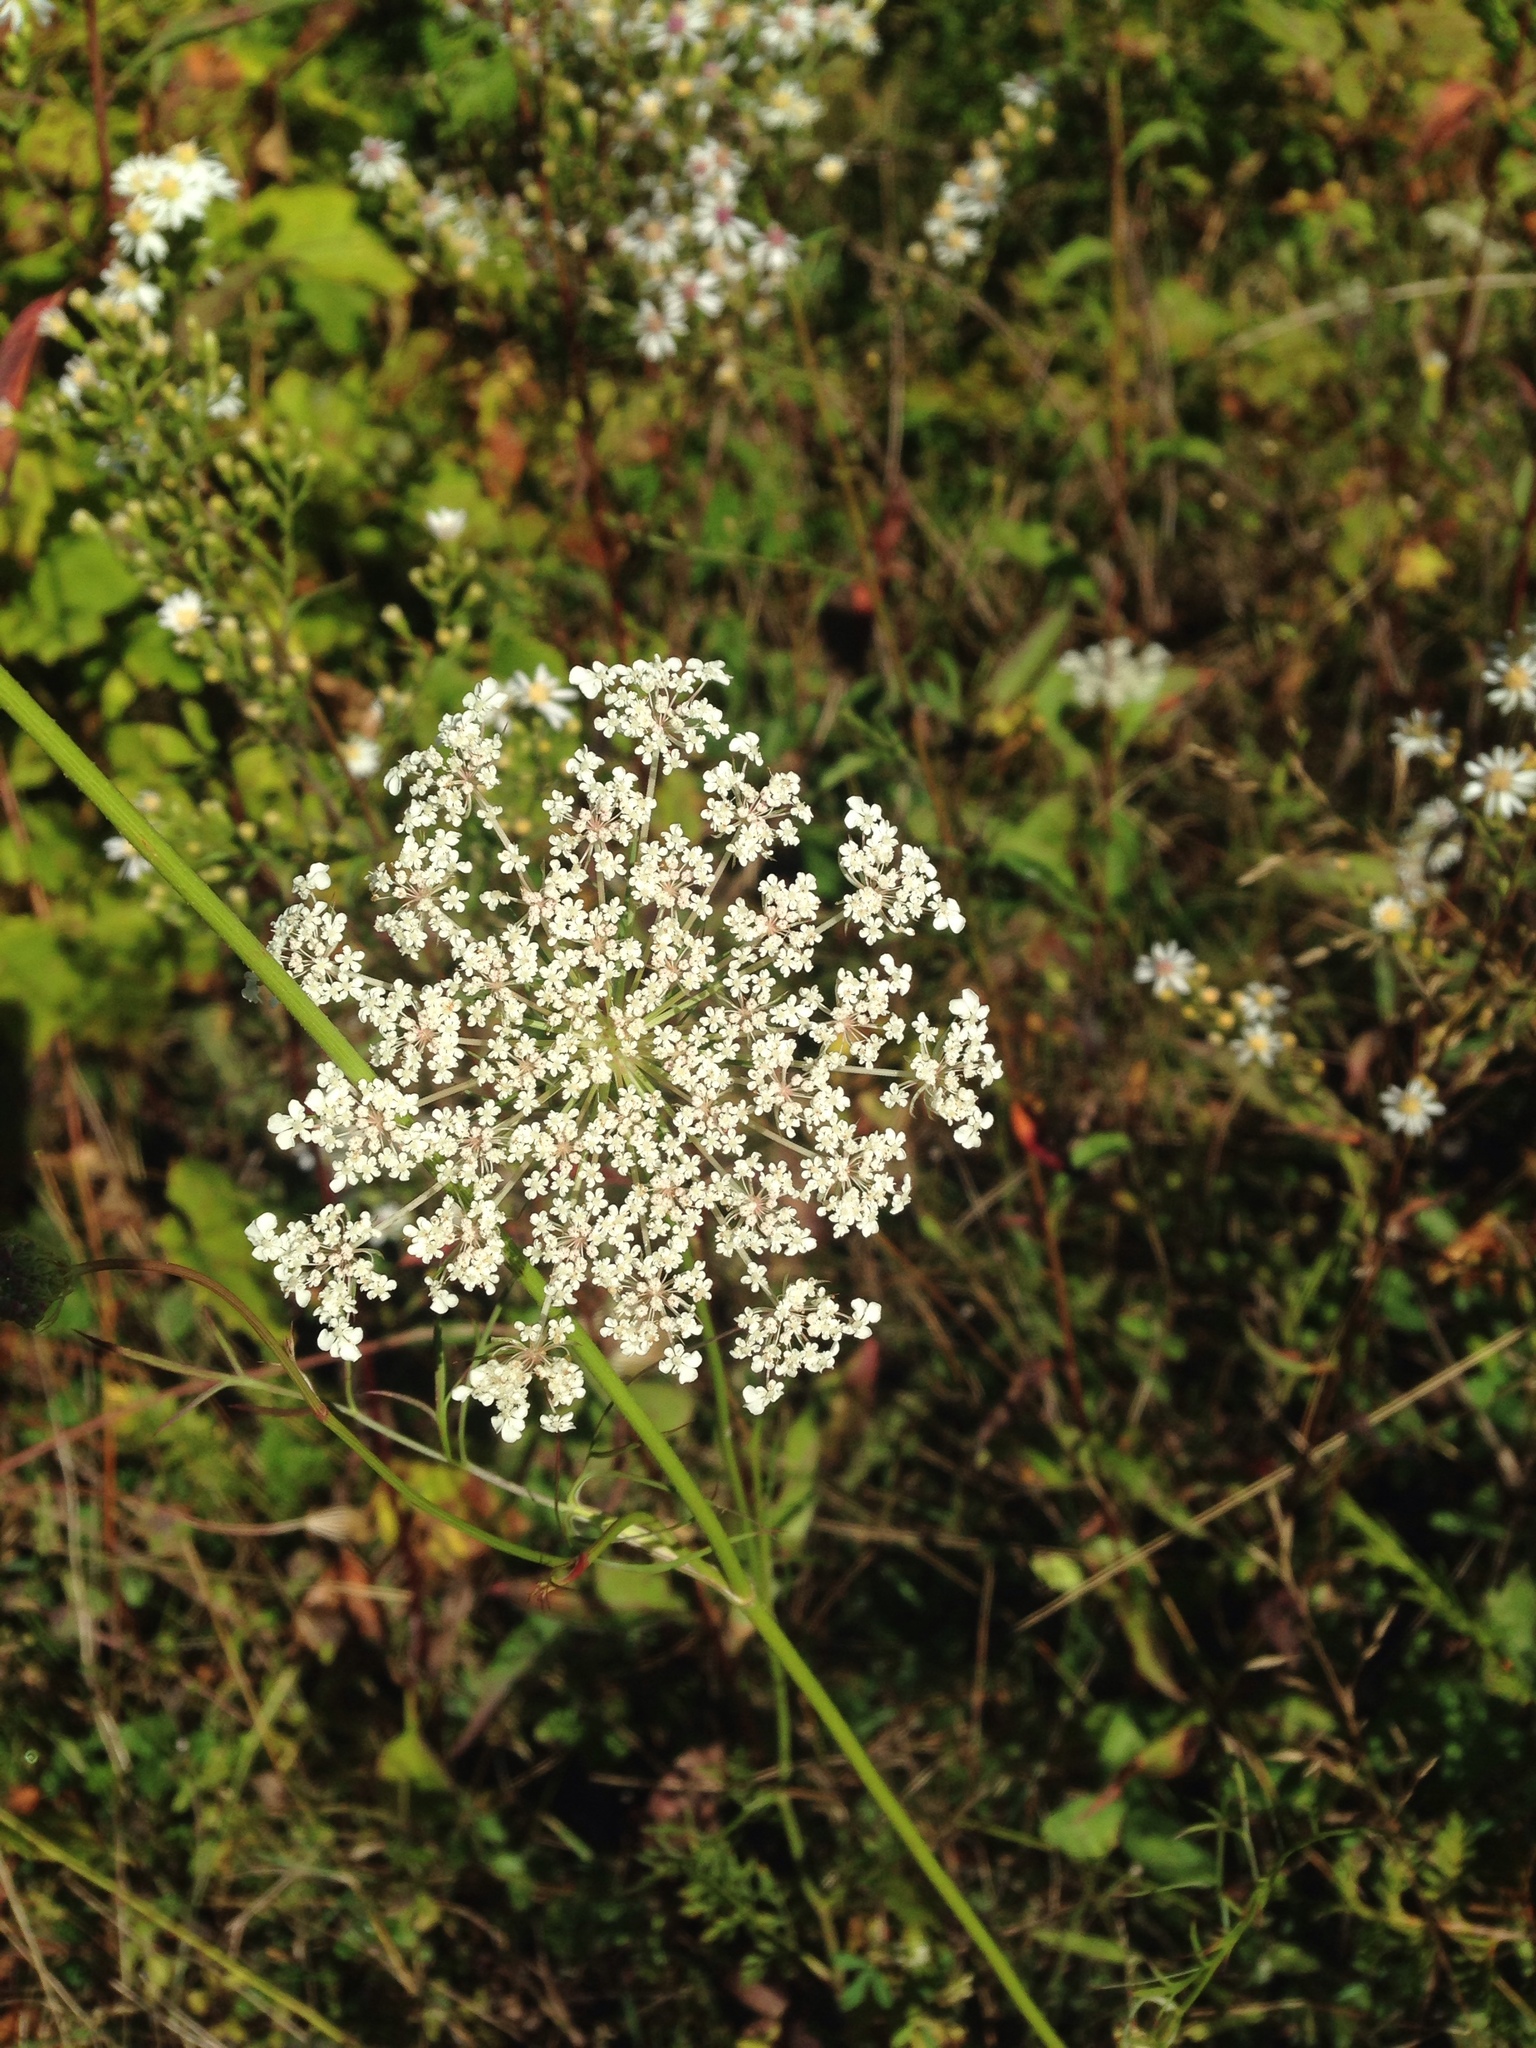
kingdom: Plantae
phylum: Tracheophyta
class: Magnoliopsida
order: Apiales
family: Apiaceae
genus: Daucus
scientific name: Daucus carota
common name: Wild carrot
